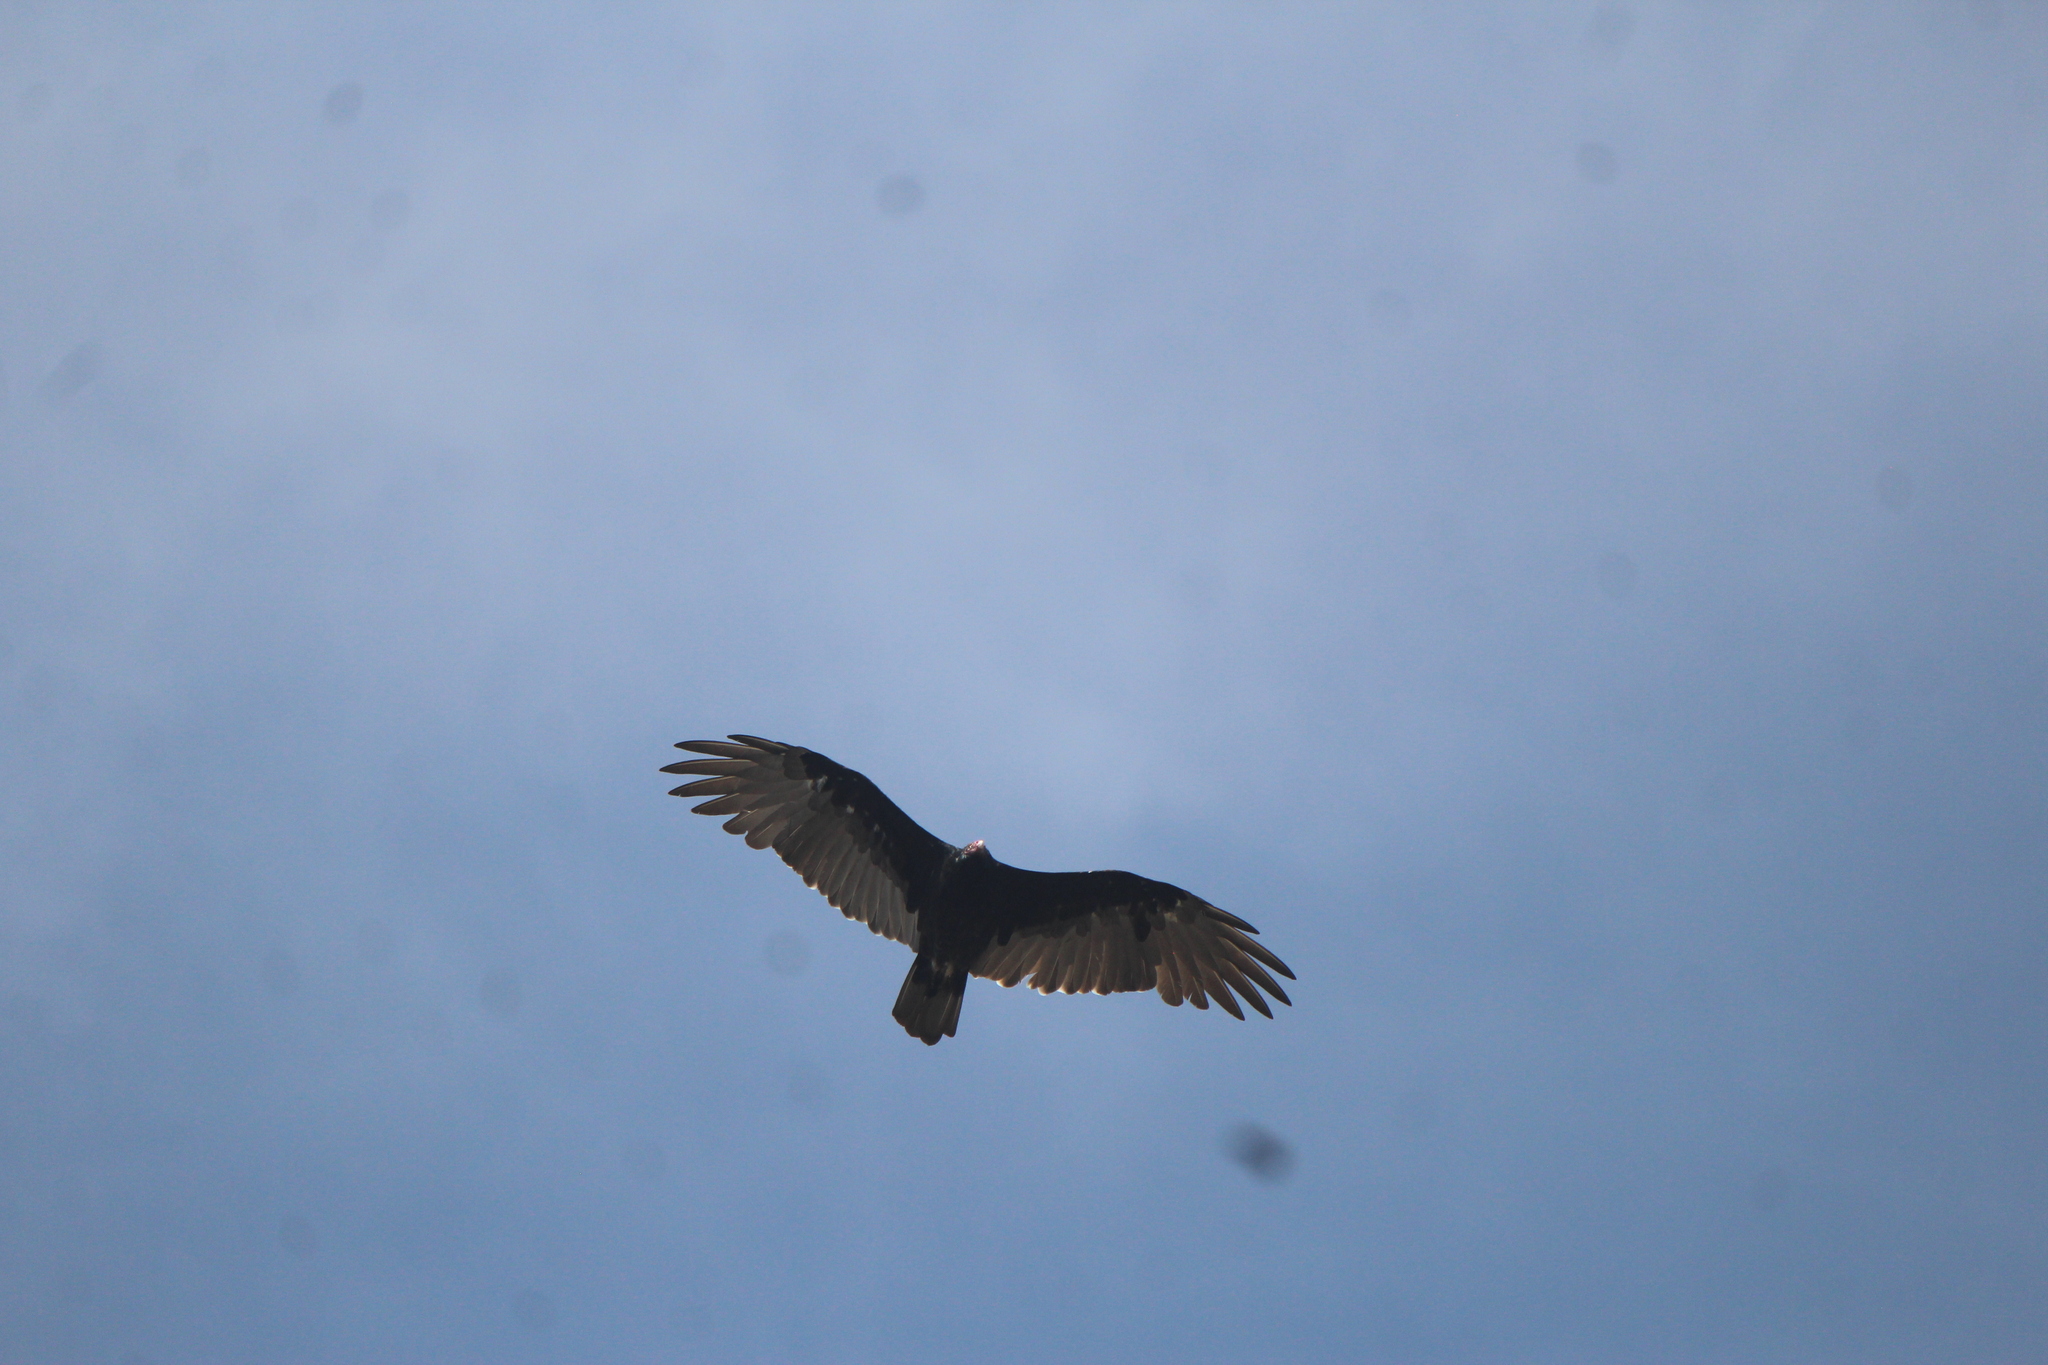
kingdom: Animalia
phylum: Chordata
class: Aves
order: Accipitriformes
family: Cathartidae
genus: Cathartes
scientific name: Cathartes aura
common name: Turkey vulture
